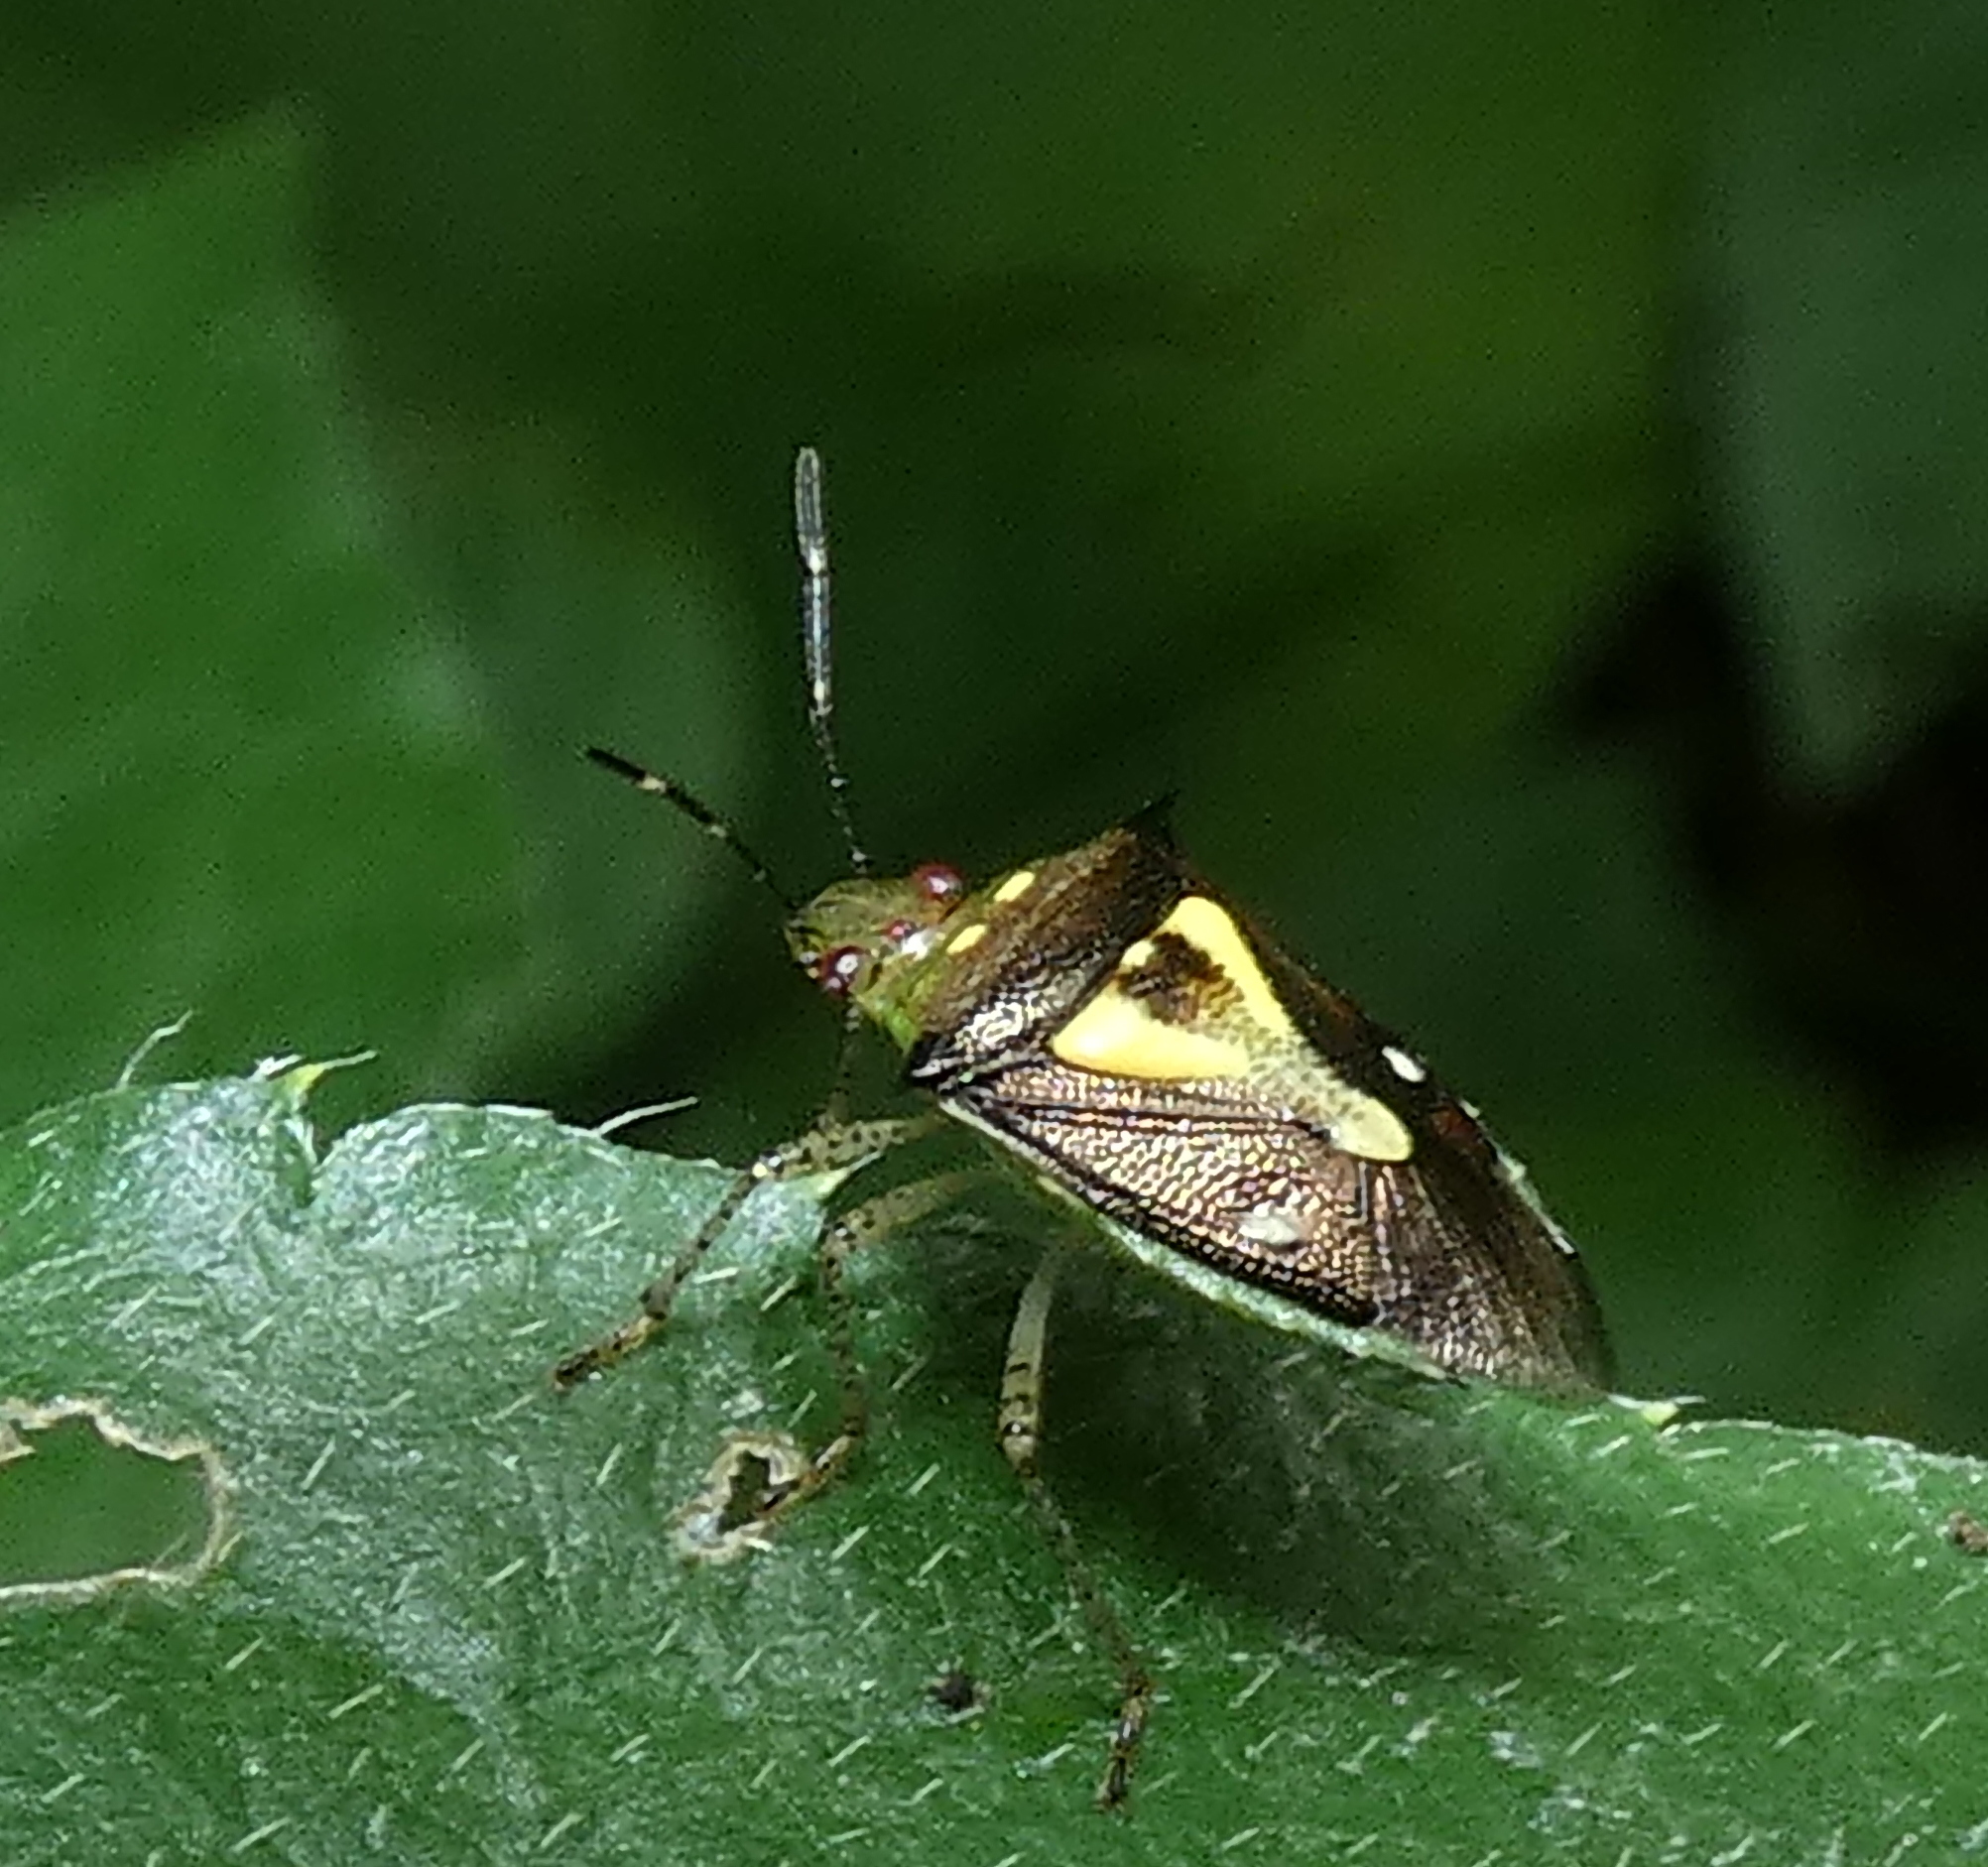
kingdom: Animalia
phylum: Arthropoda
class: Insecta
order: Hemiptera
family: Pentatomidae
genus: Mormidea
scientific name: Mormidea ypsilon
